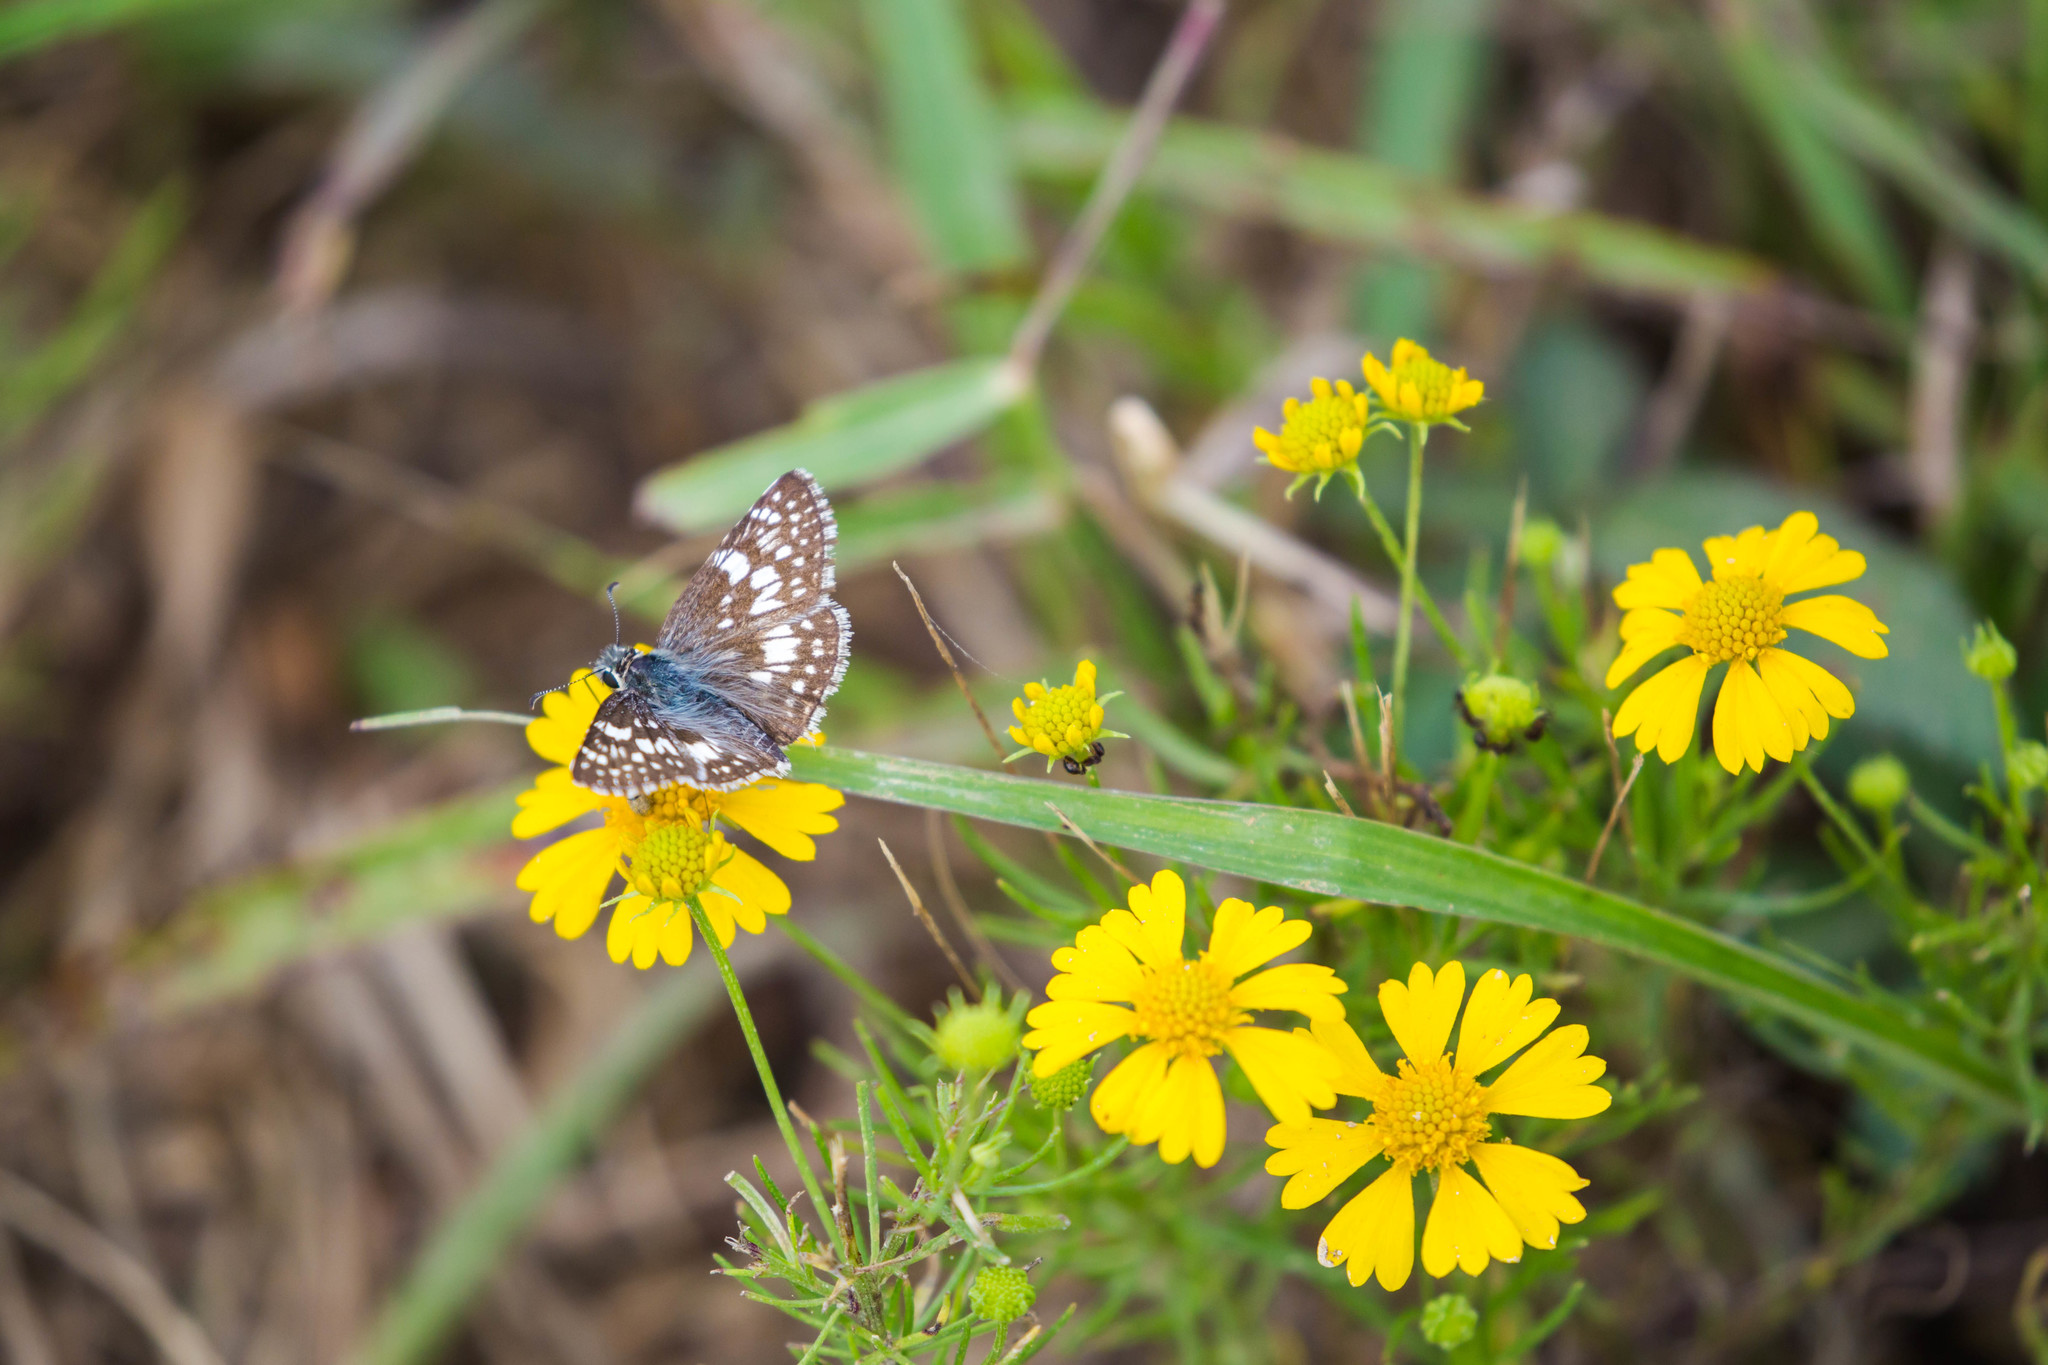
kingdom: Animalia
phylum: Arthropoda
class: Insecta
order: Lepidoptera
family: Hesperiidae
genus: Burnsius
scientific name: Burnsius communis
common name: Common checkered-skipper
